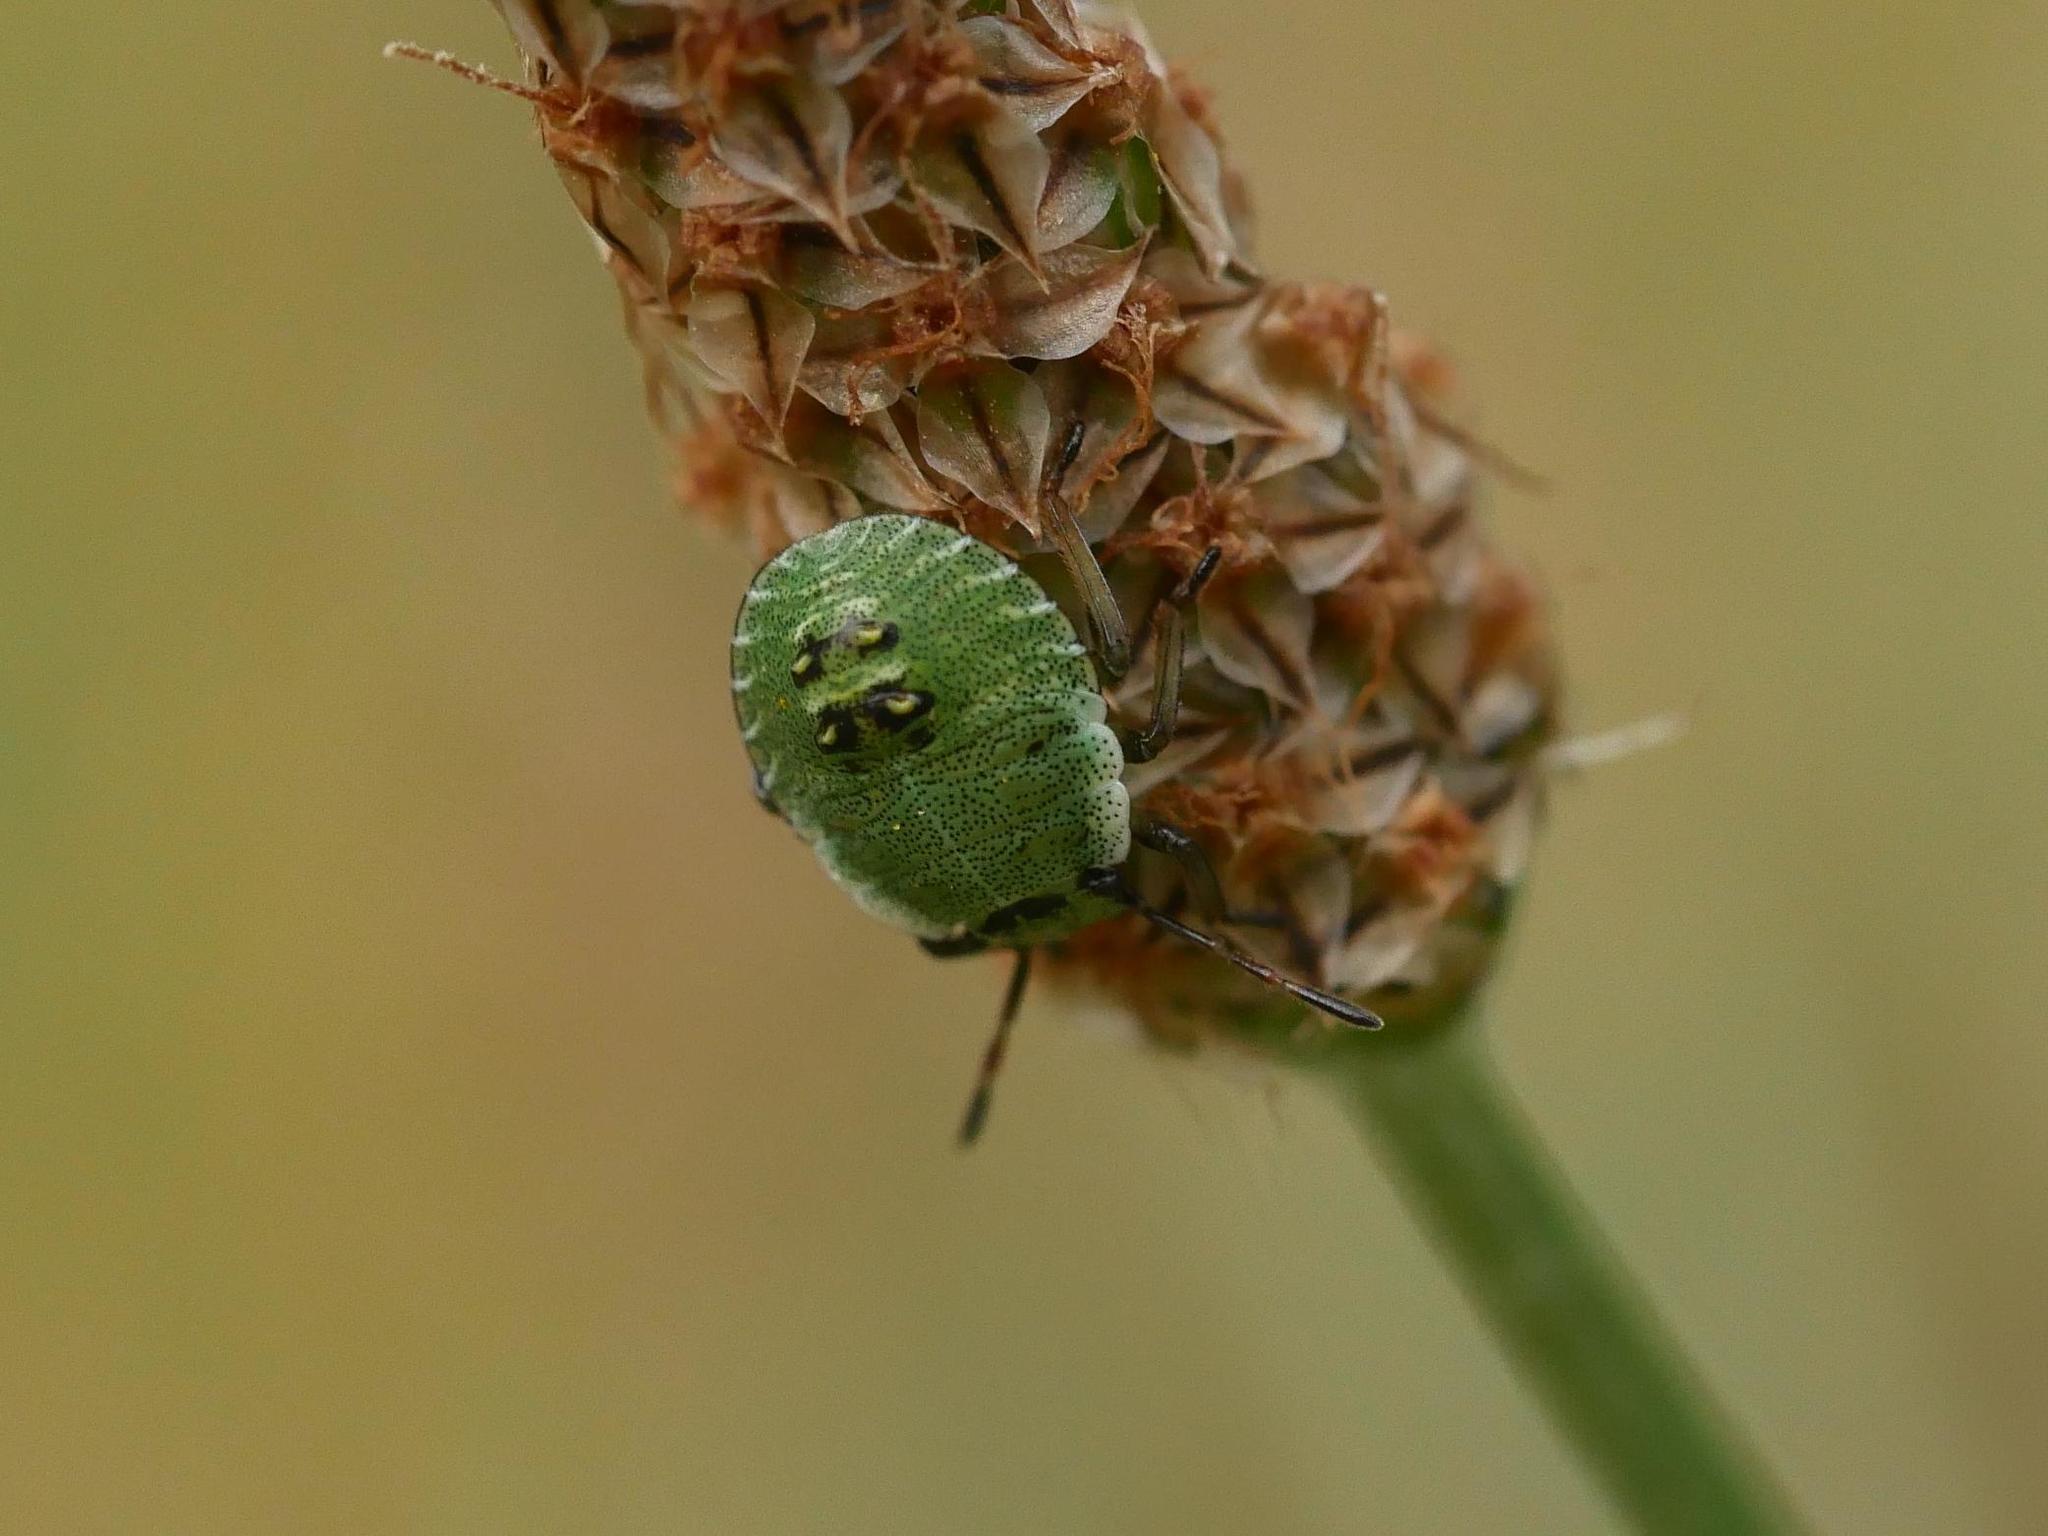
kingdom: Animalia
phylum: Arthropoda
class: Insecta
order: Hemiptera
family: Pentatomidae
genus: Palomena
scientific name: Palomena prasina
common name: Green shieldbug
